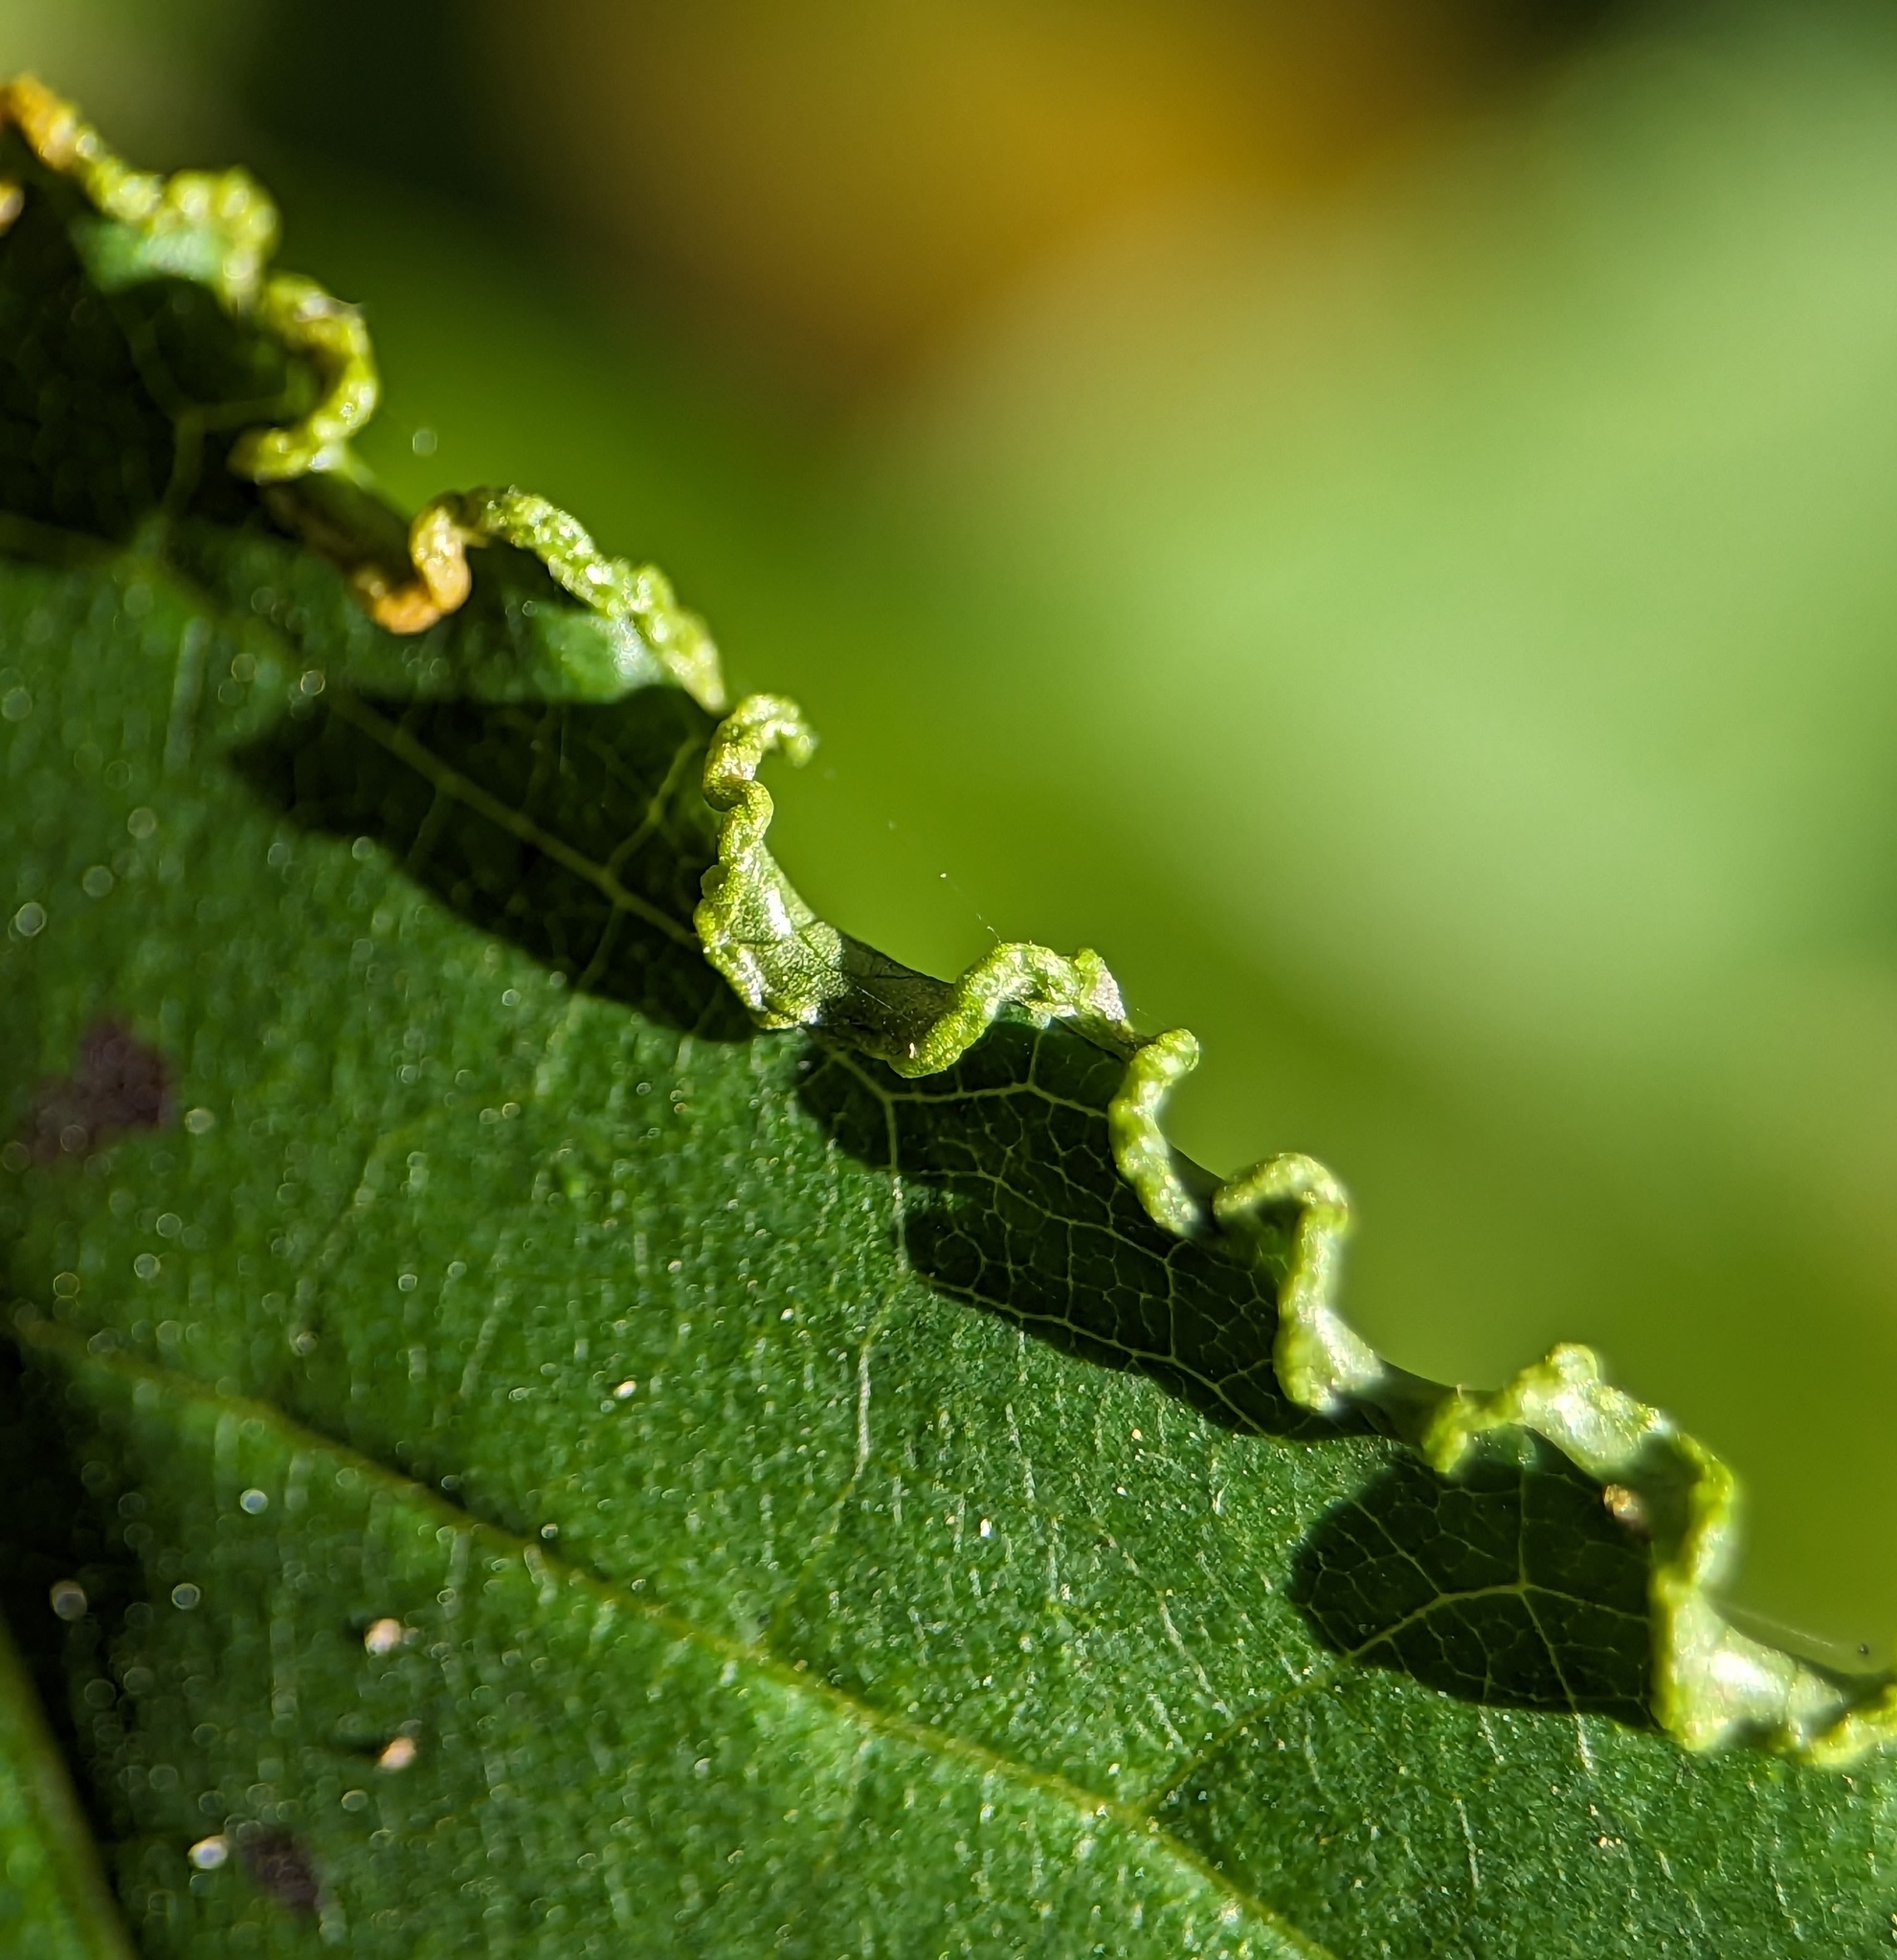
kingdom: Animalia
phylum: Arthropoda
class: Arachnida
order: Trombidiformes
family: Eriophyidae
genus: Aceria
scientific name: Aceria
